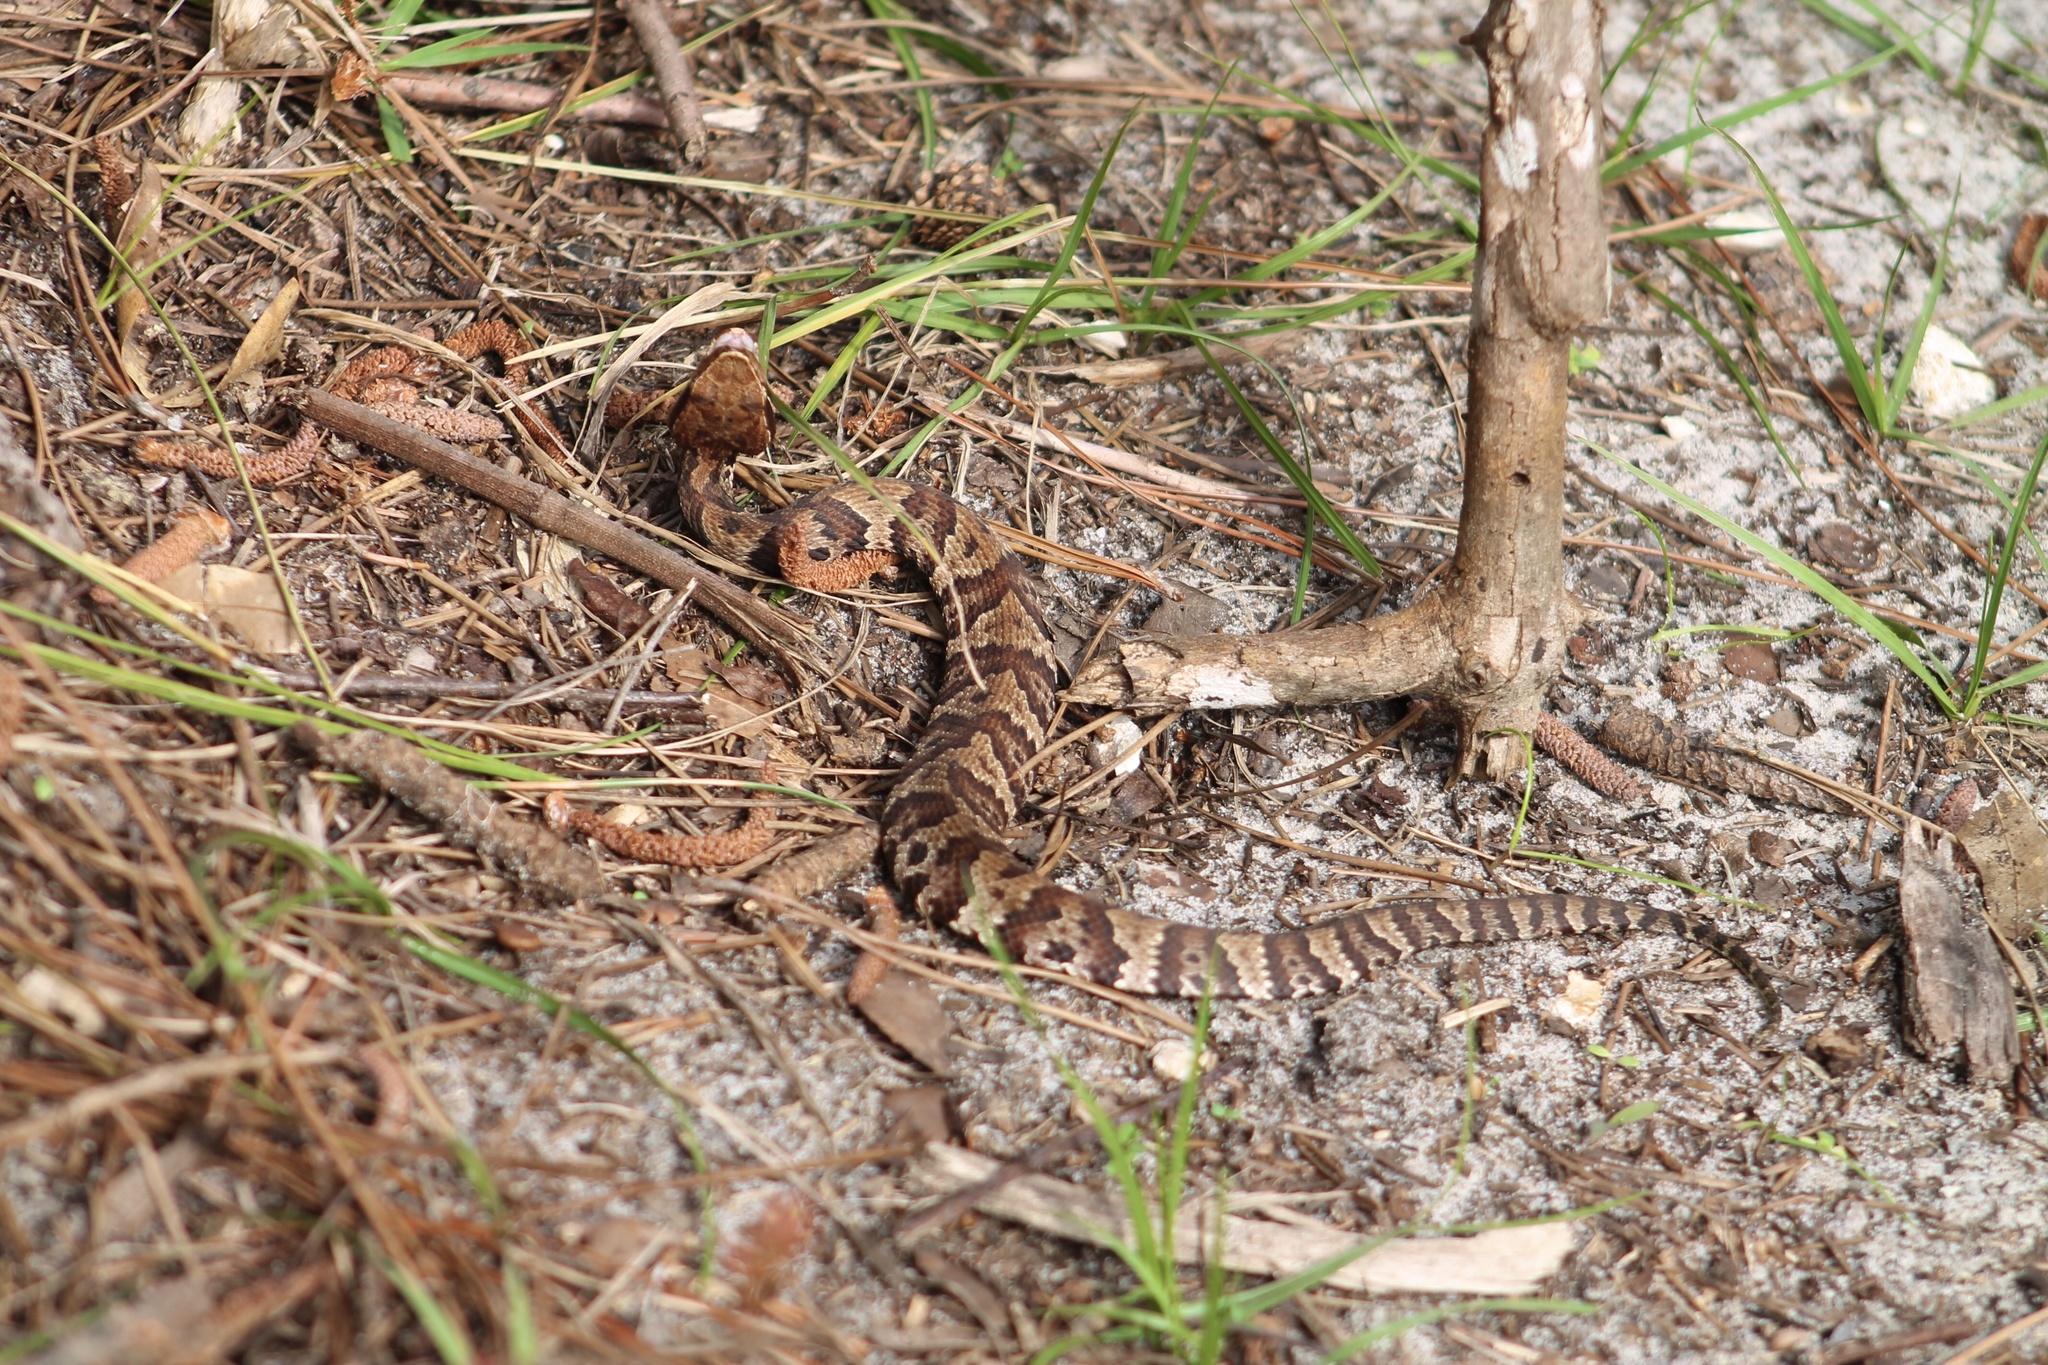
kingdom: Animalia
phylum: Chordata
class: Squamata
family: Viperidae
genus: Agkistrodon
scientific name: Agkistrodon piscivorus
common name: Cottonmouth
